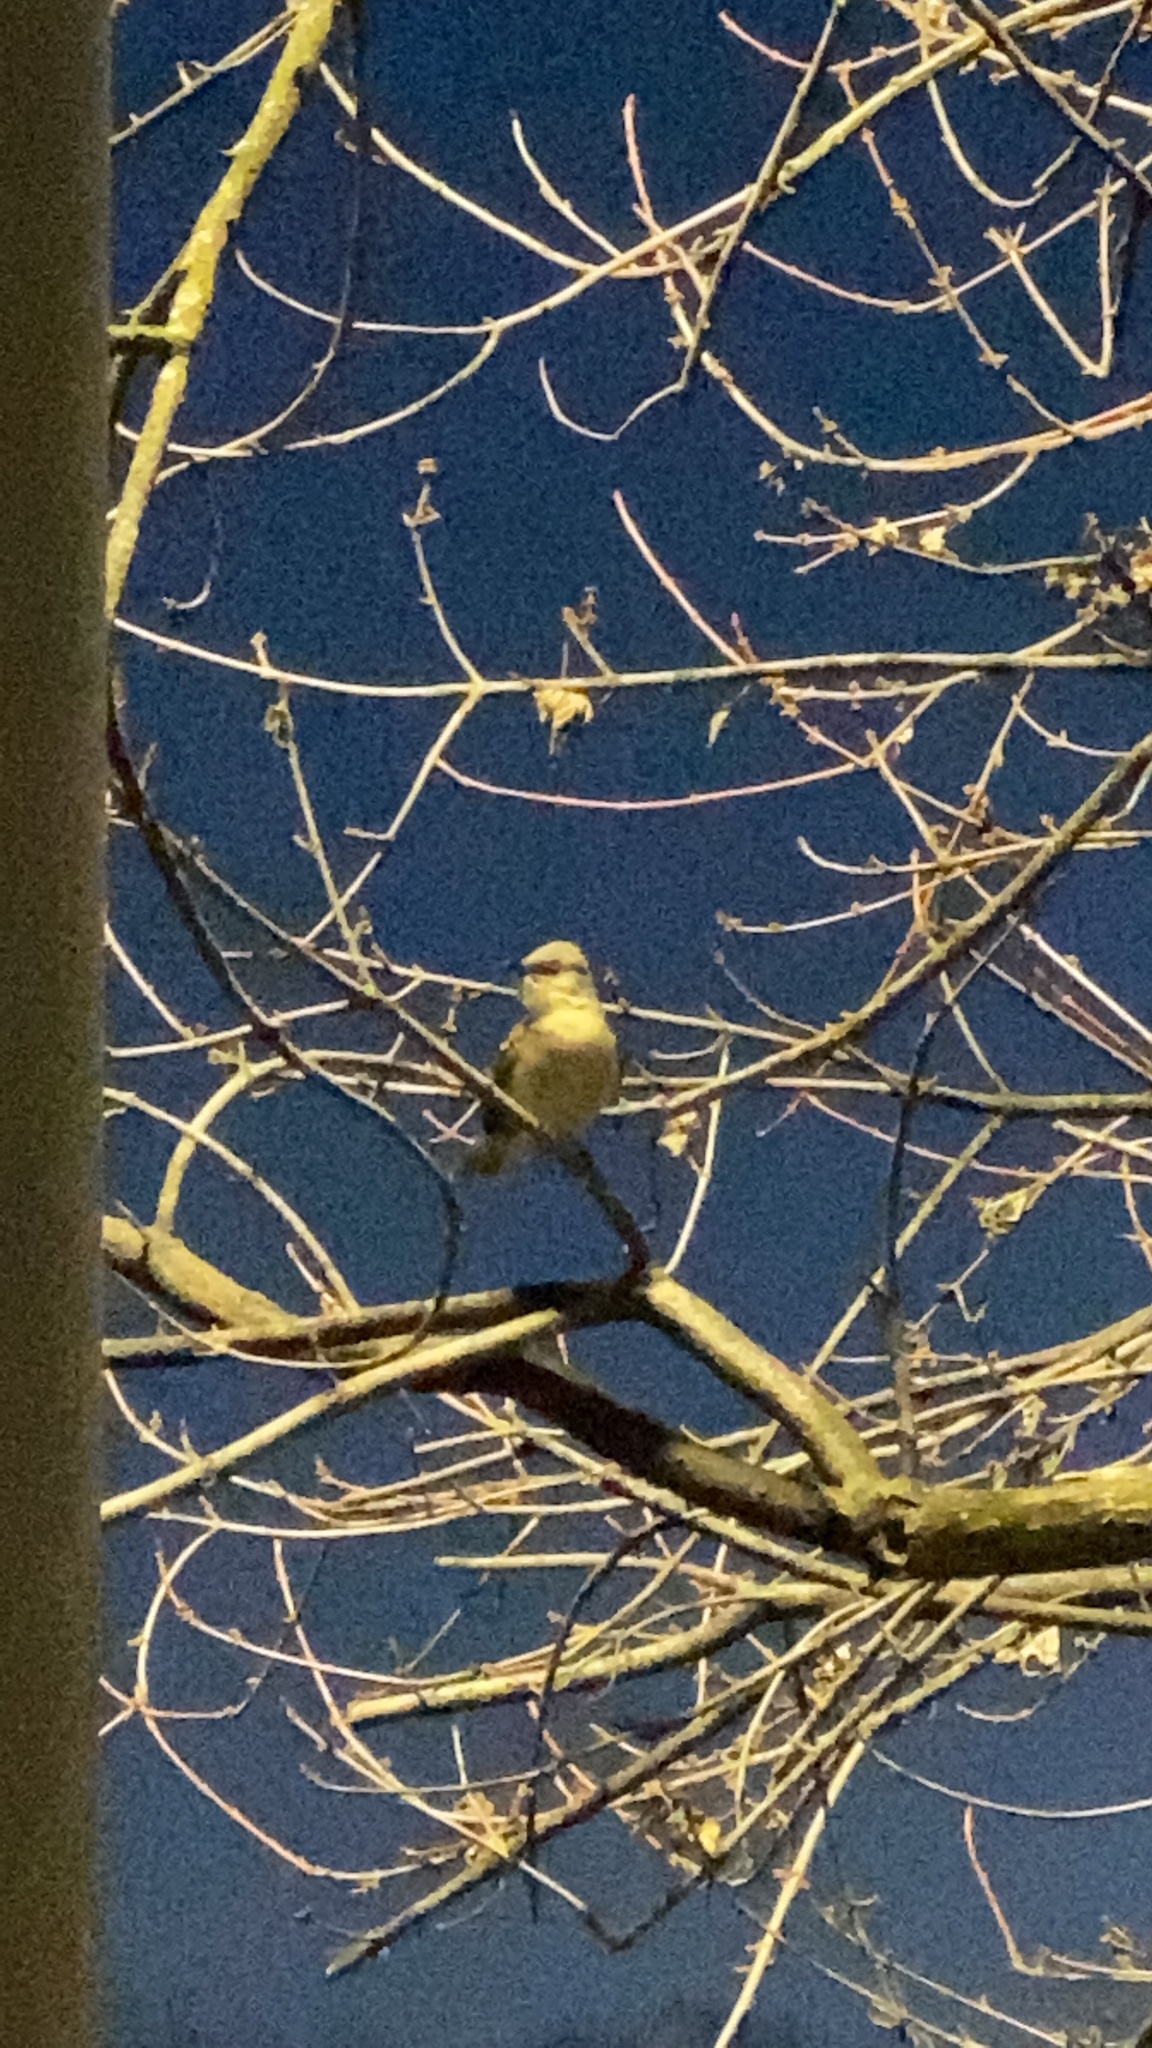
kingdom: Animalia
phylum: Chordata
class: Aves
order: Passeriformes
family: Mimidae
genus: Mimus
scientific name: Mimus polyglottos
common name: Northern mockingbird
